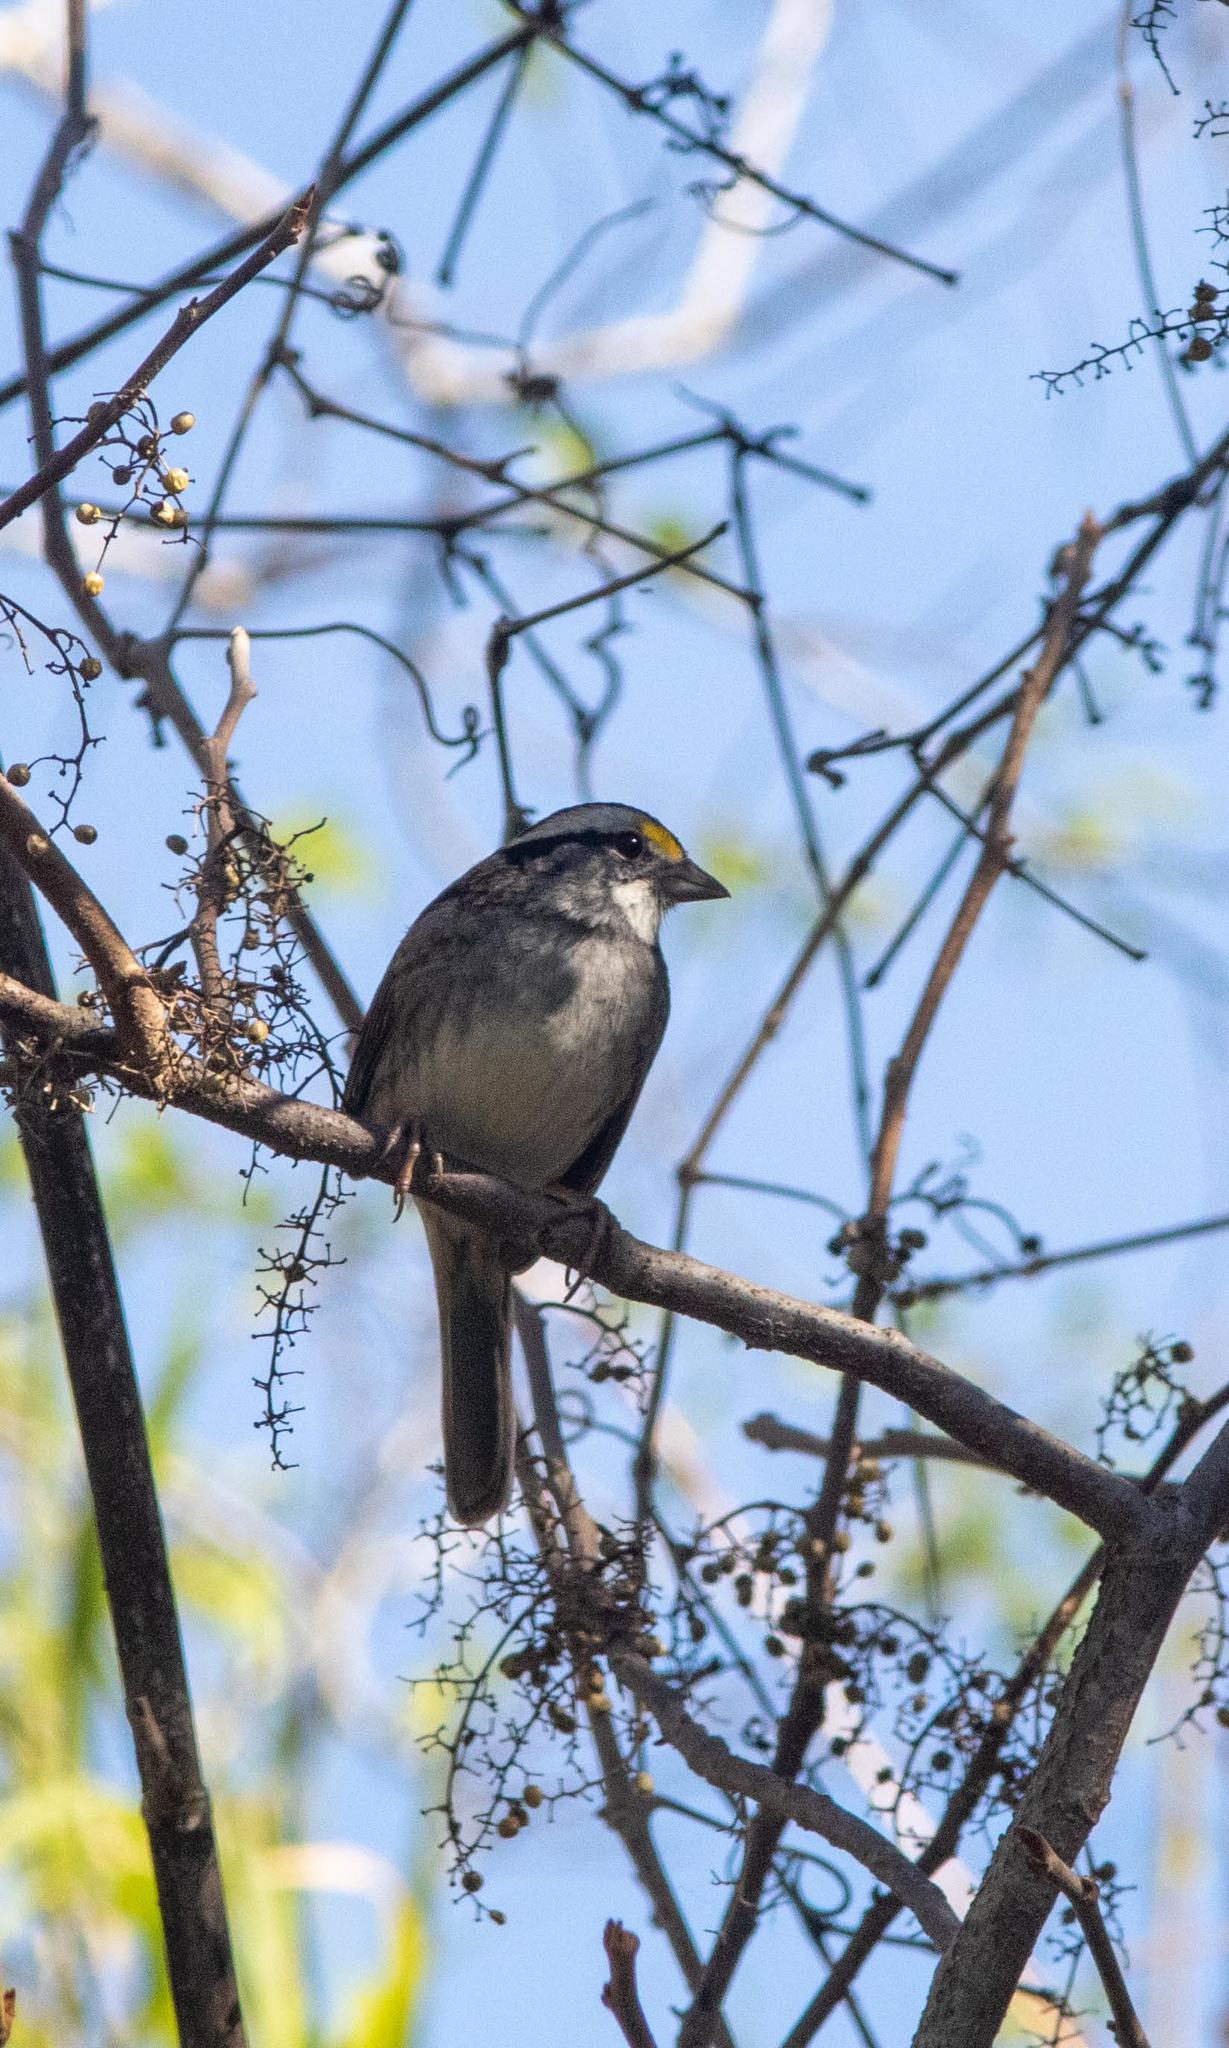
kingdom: Animalia
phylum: Chordata
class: Aves
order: Passeriformes
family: Passerellidae
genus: Zonotrichia
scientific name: Zonotrichia albicollis
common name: White-throated sparrow
